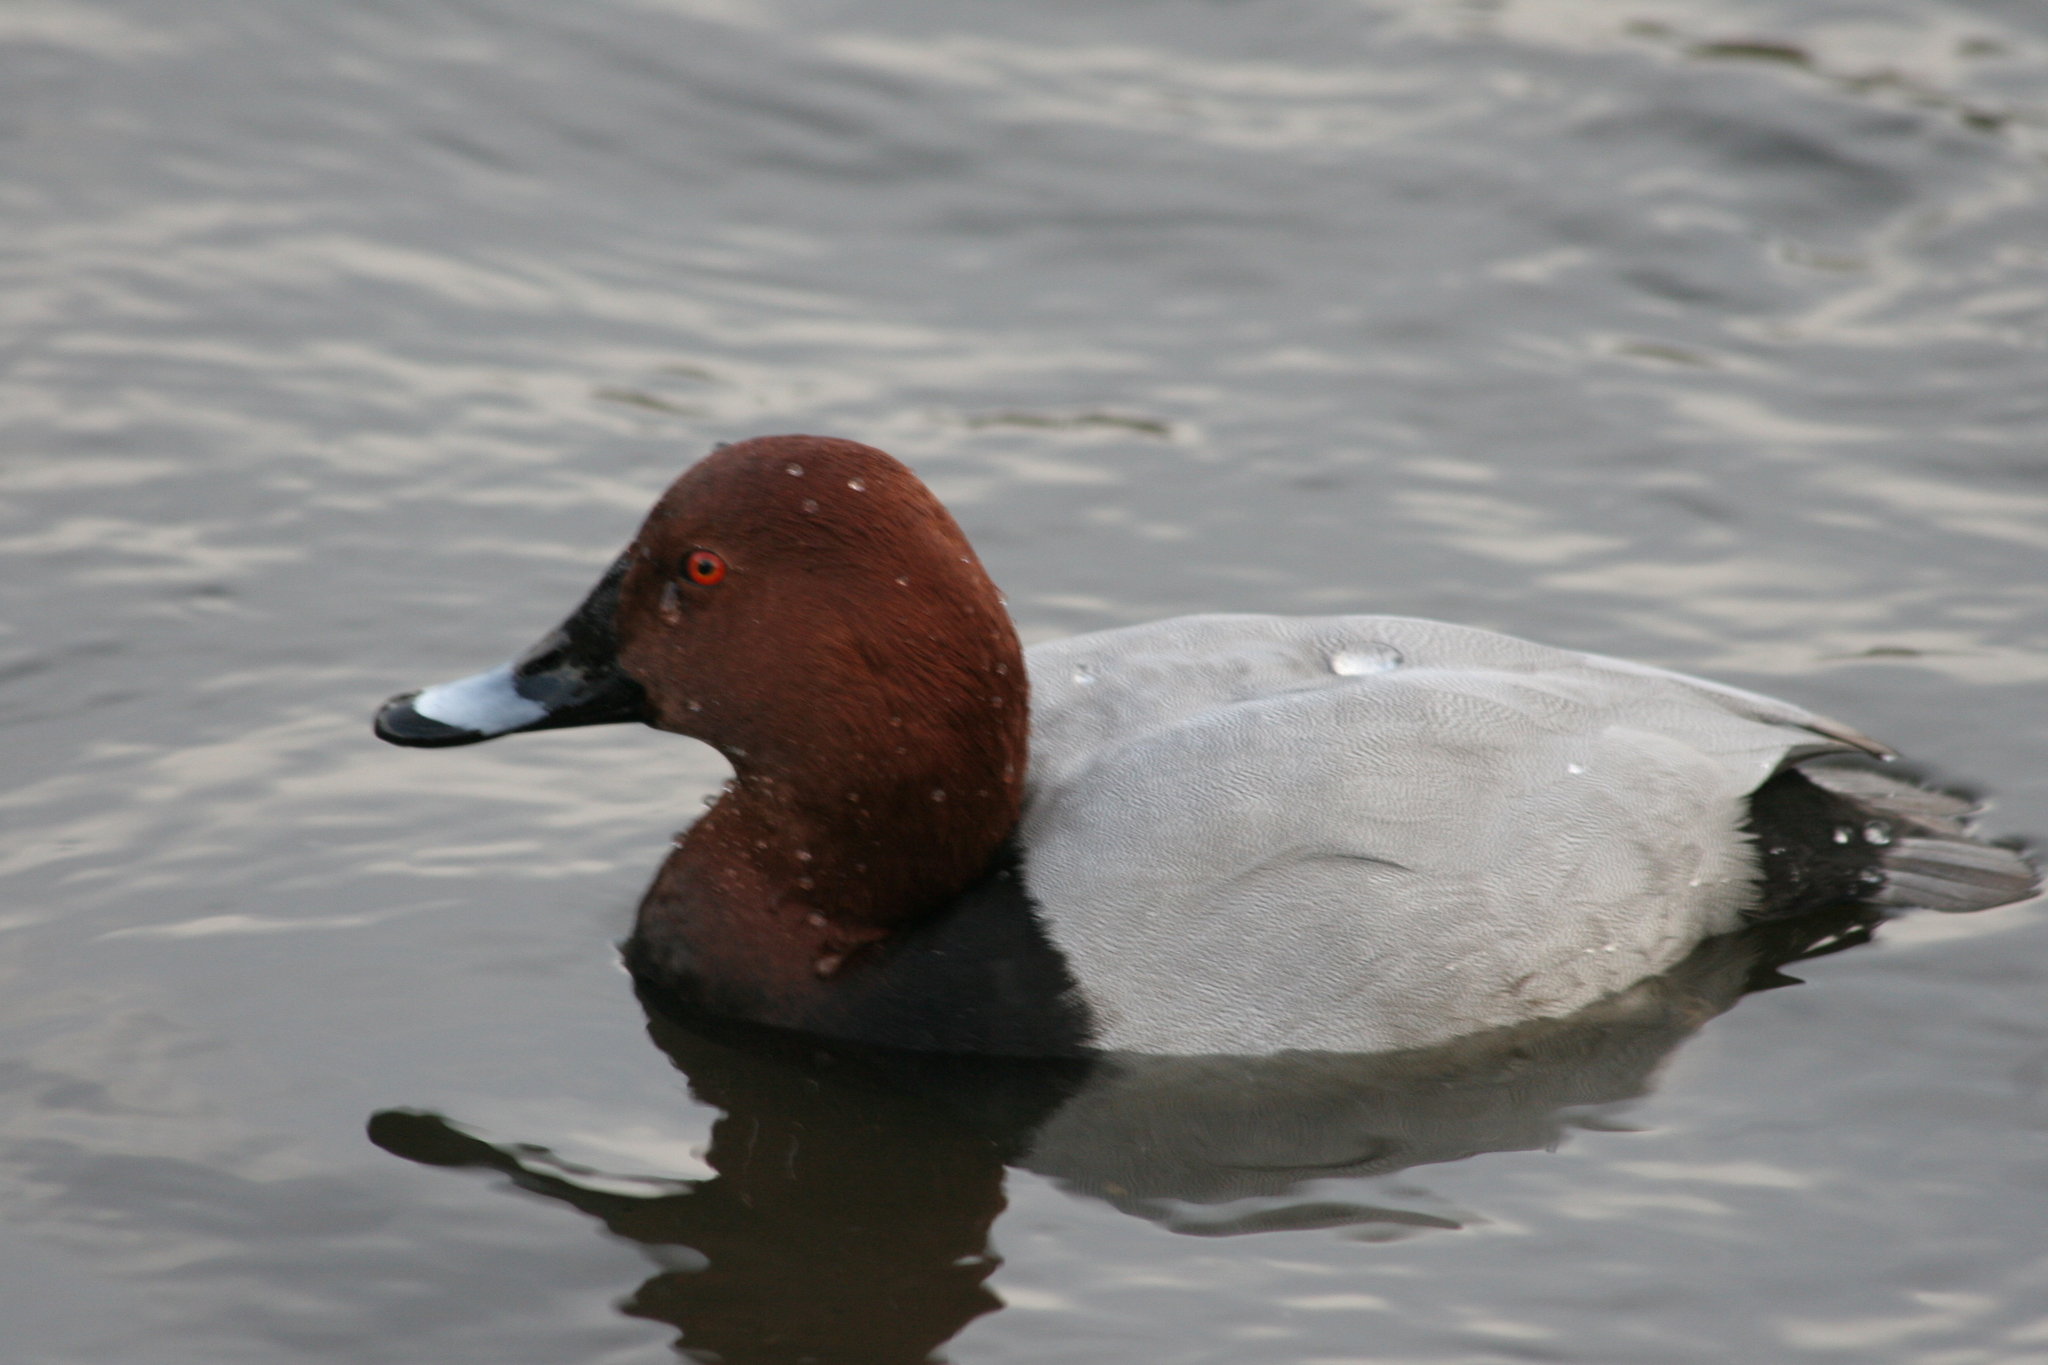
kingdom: Animalia
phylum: Chordata
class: Aves
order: Anseriformes
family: Anatidae
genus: Aythya
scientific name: Aythya ferina
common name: Common pochard
